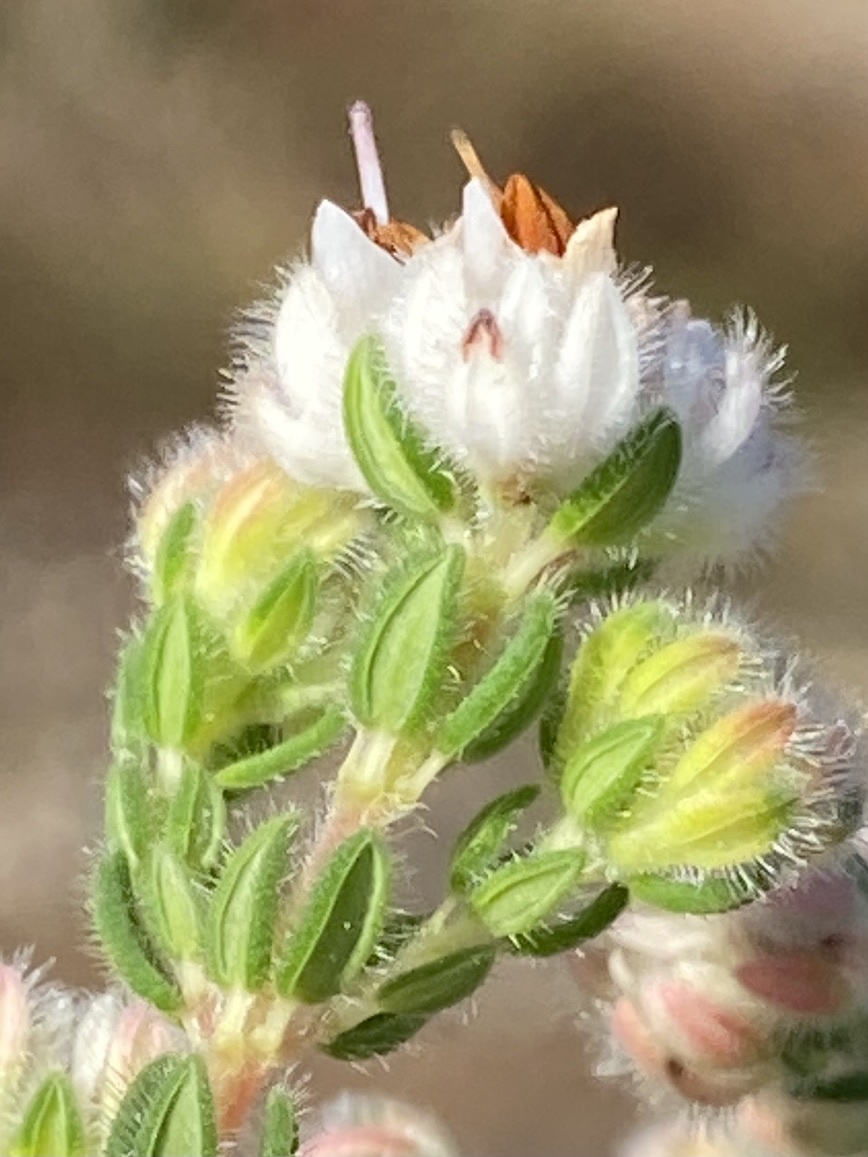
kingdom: Plantae
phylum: Tracheophyta
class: Magnoliopsida
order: Ericales
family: Ericaceae
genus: Erica
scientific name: Erica flaccida
